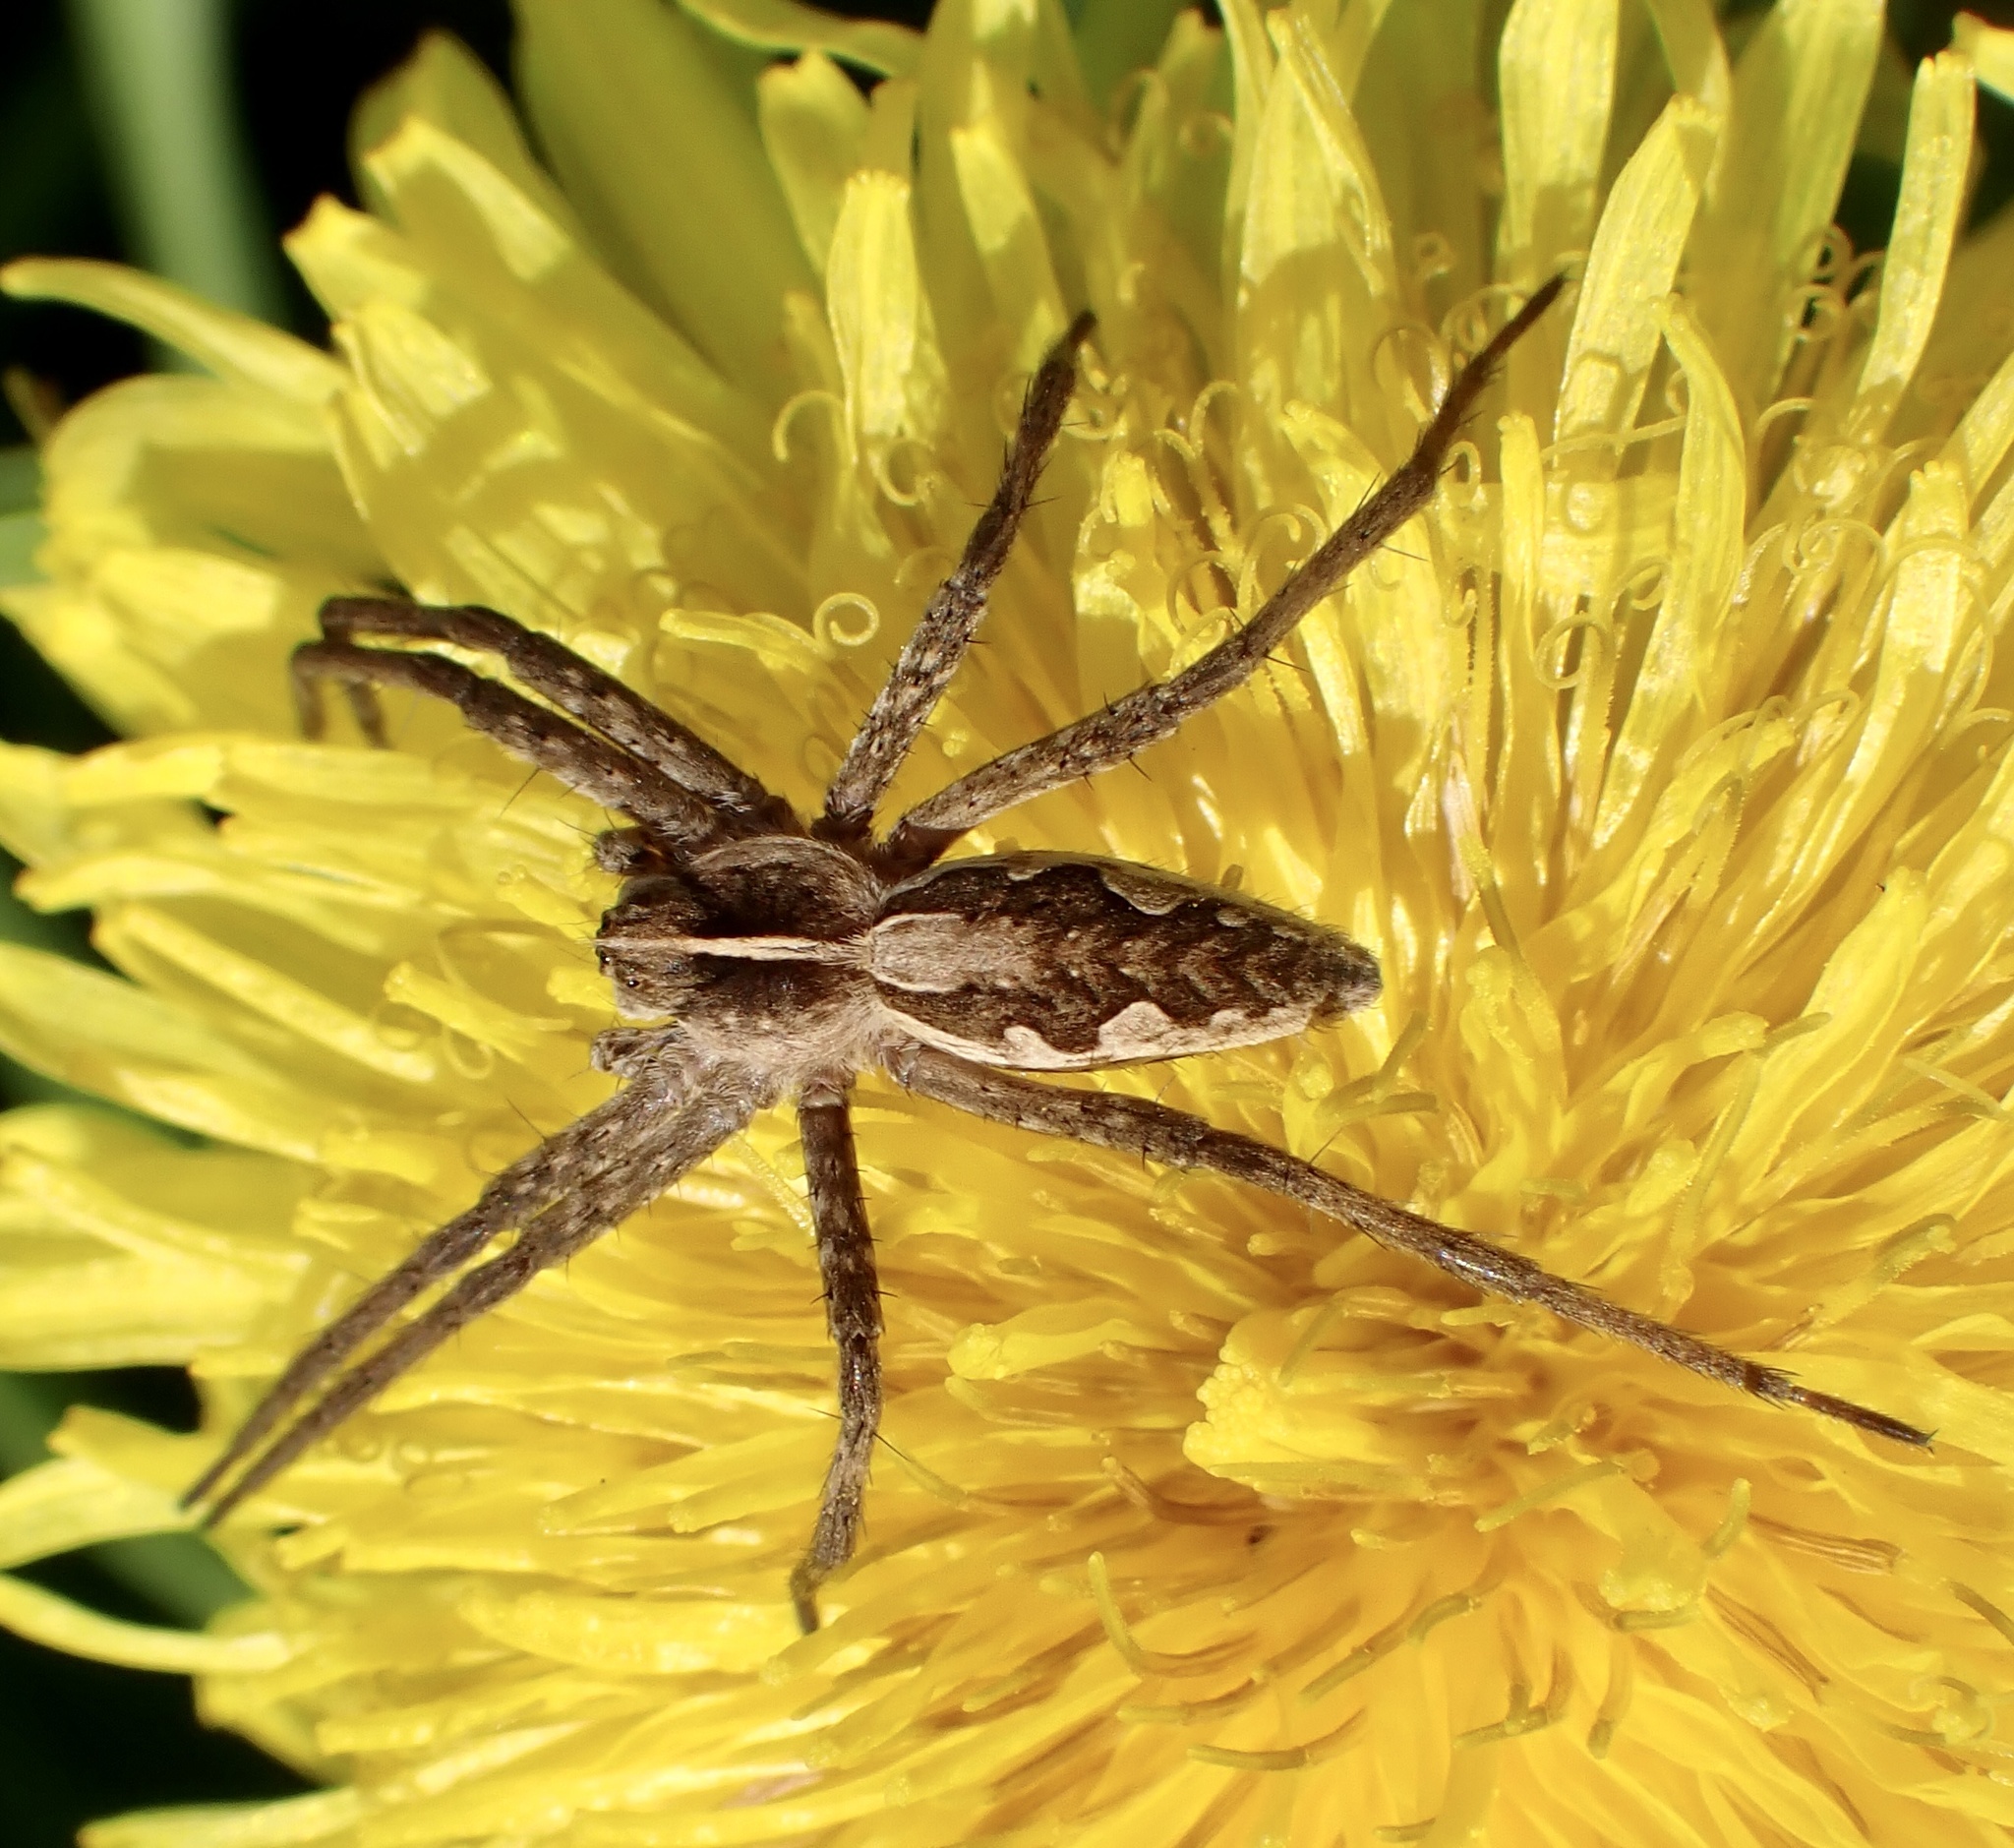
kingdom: Animalia
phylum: Arthropoda
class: Arachnida
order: Araneae
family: Pisauridae
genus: Pisaura
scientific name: Pisaura mirabilis
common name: Tent spider
